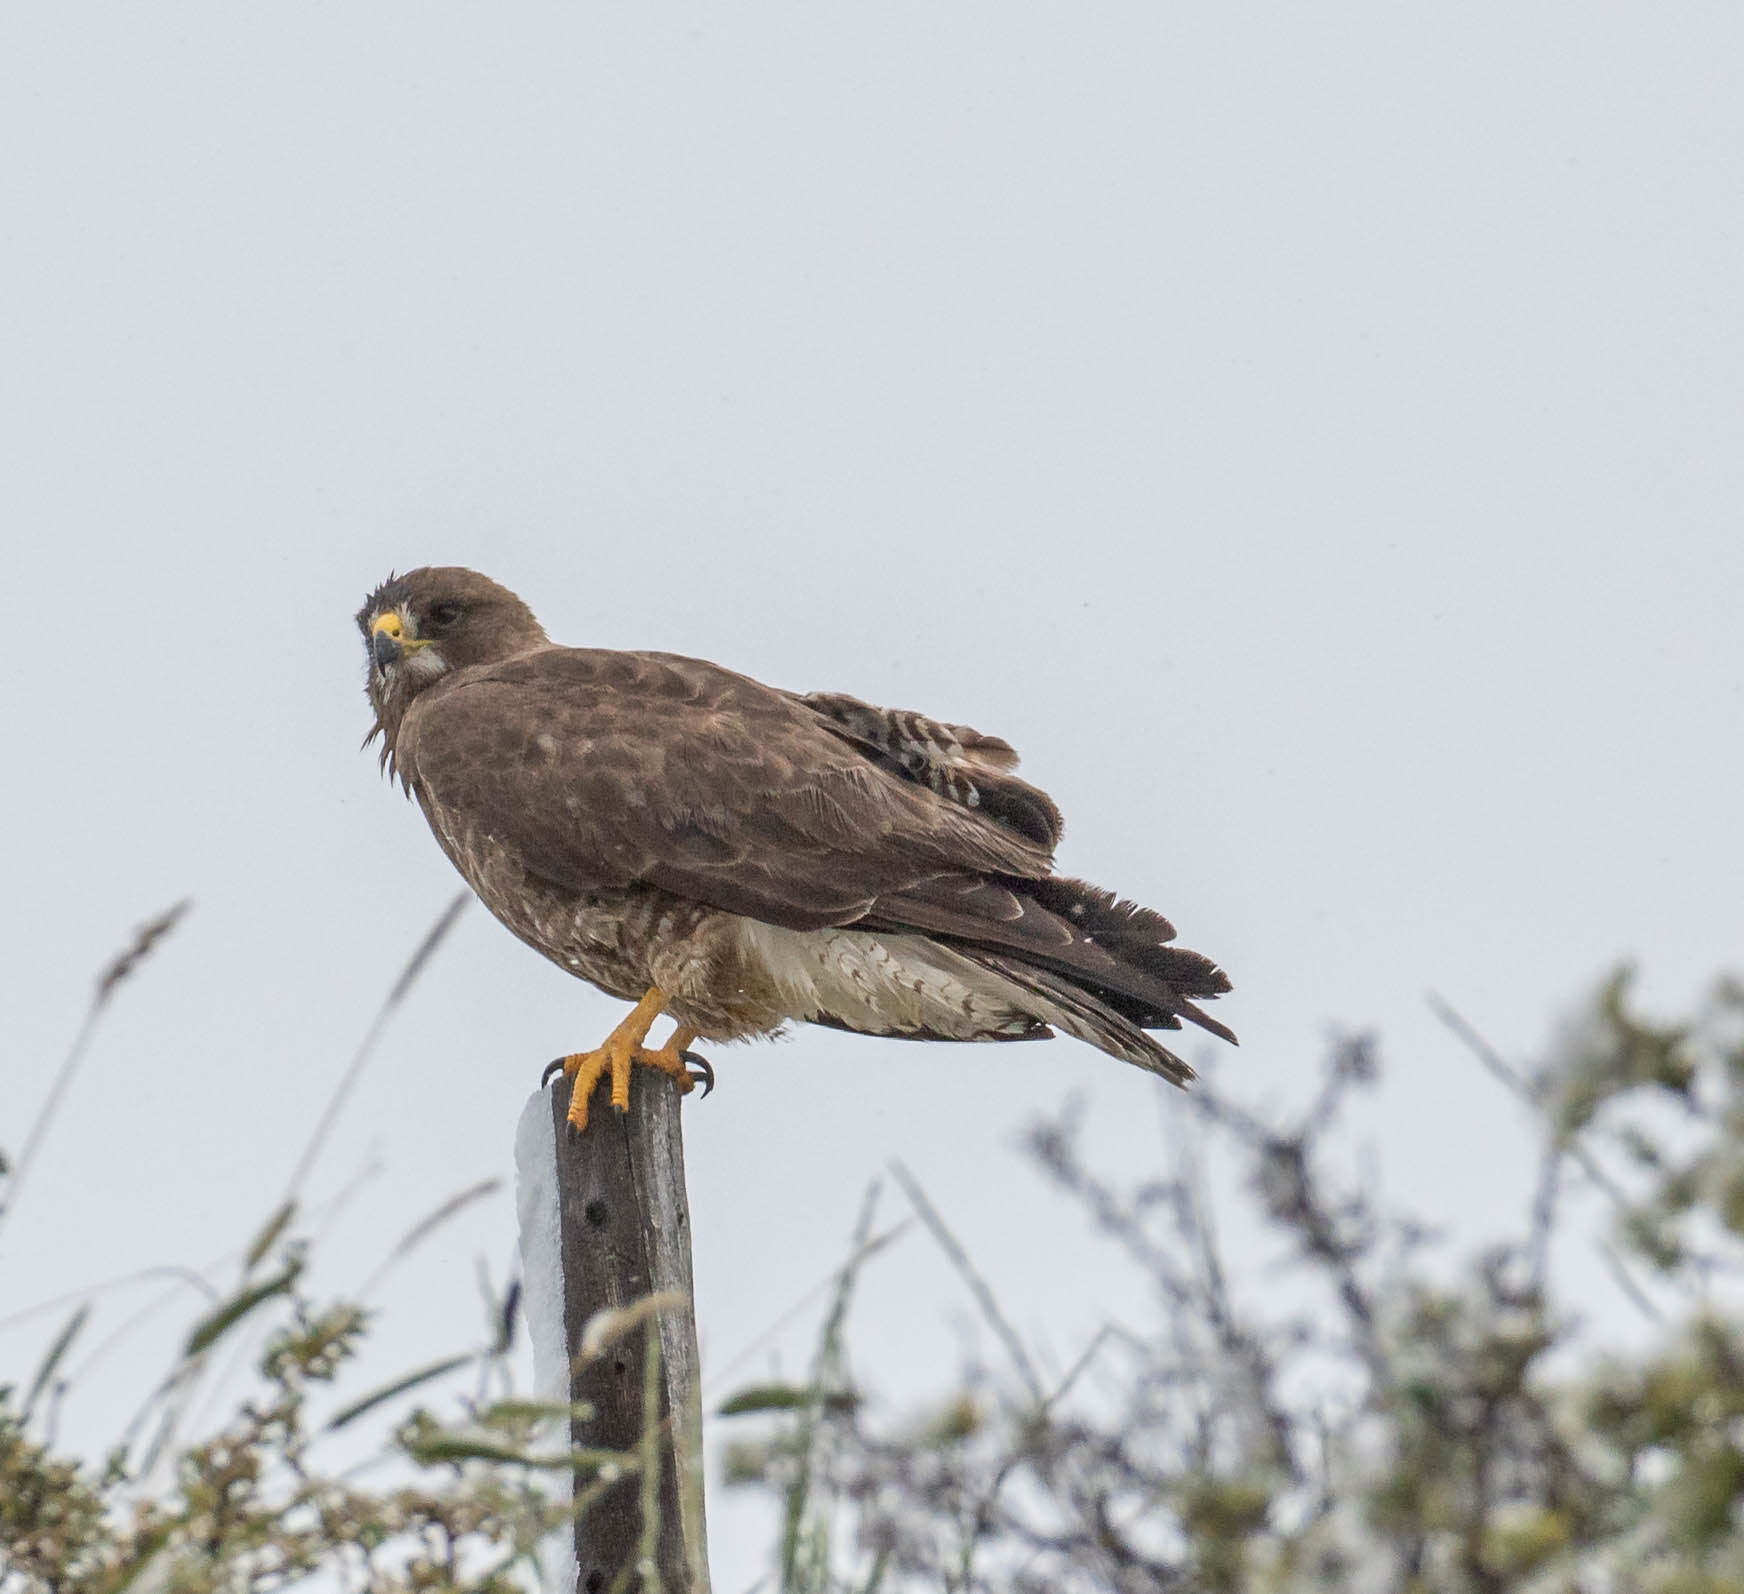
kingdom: Animalia
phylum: Chordata
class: Aves
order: Accipitriformes
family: Accipitridae
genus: Buteo
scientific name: Buteo swainsoni
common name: Swainson's hawk
